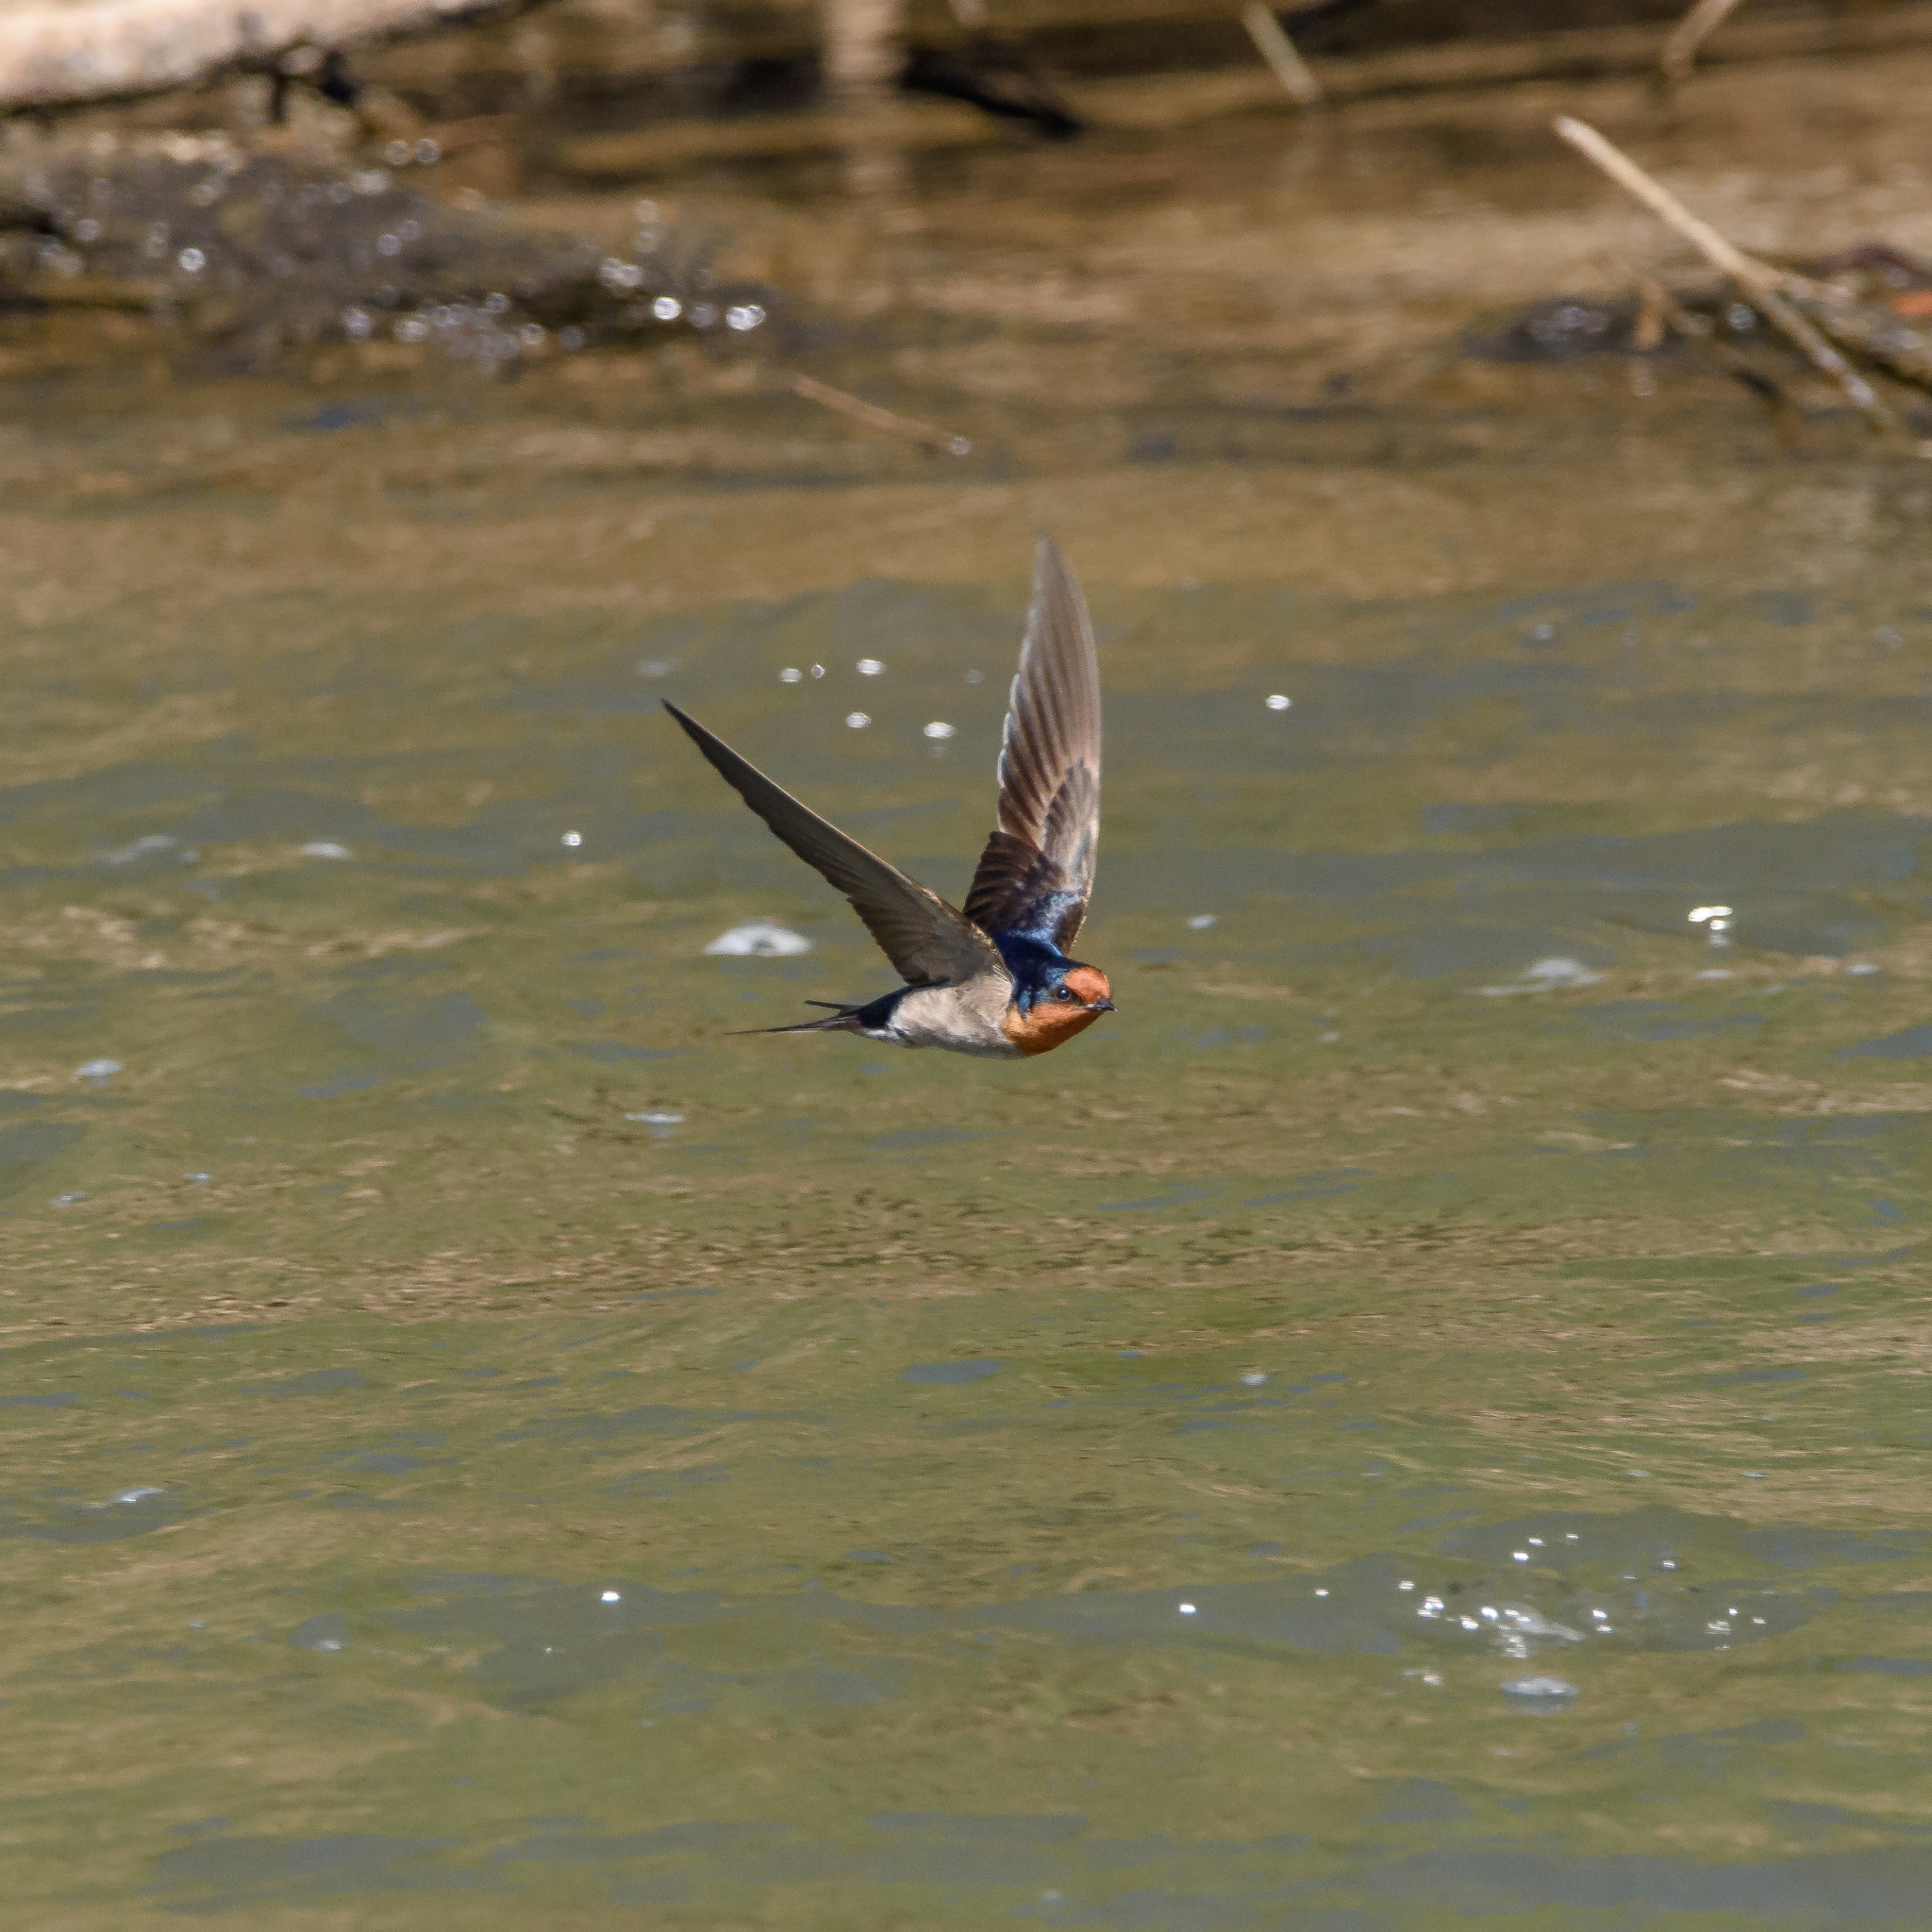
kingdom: Animalia
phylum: Chordata
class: Aves
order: Passeriformes
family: Hirundinidae
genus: Hirundo
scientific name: Hirundo neoxena
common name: Welcome swallow
